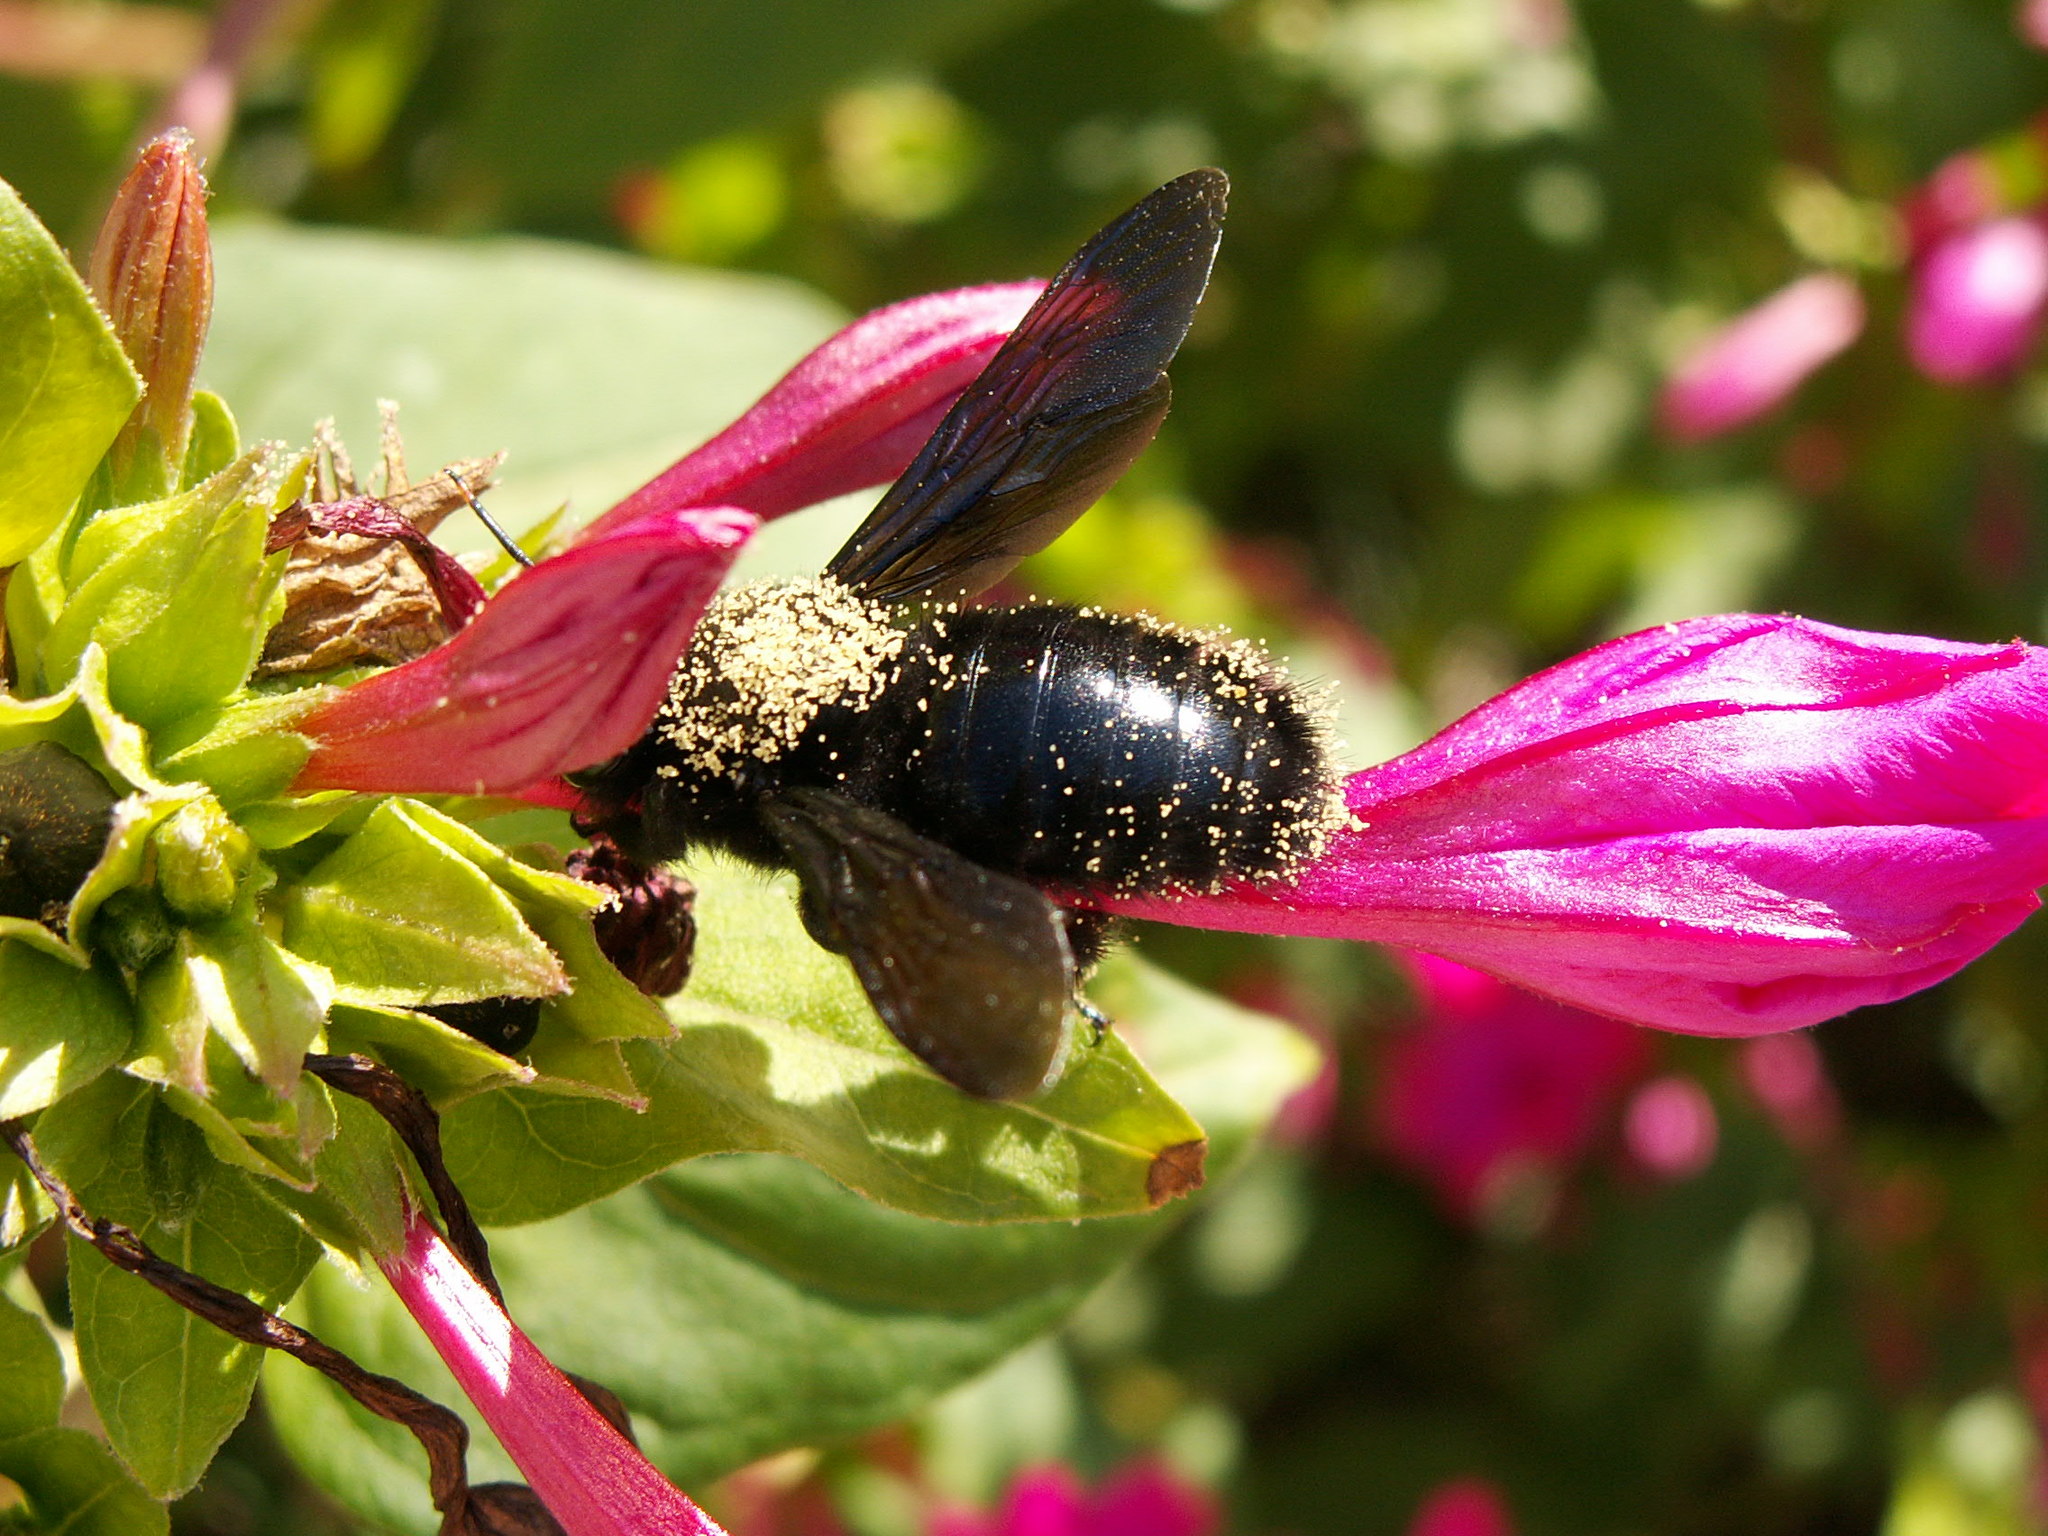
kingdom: Animalia
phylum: Arthropoda
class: Insecta
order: Hymenoptera
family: Apidae
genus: Xylocopa
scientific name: Xylocopa violacea
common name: Violet carpenter bee
